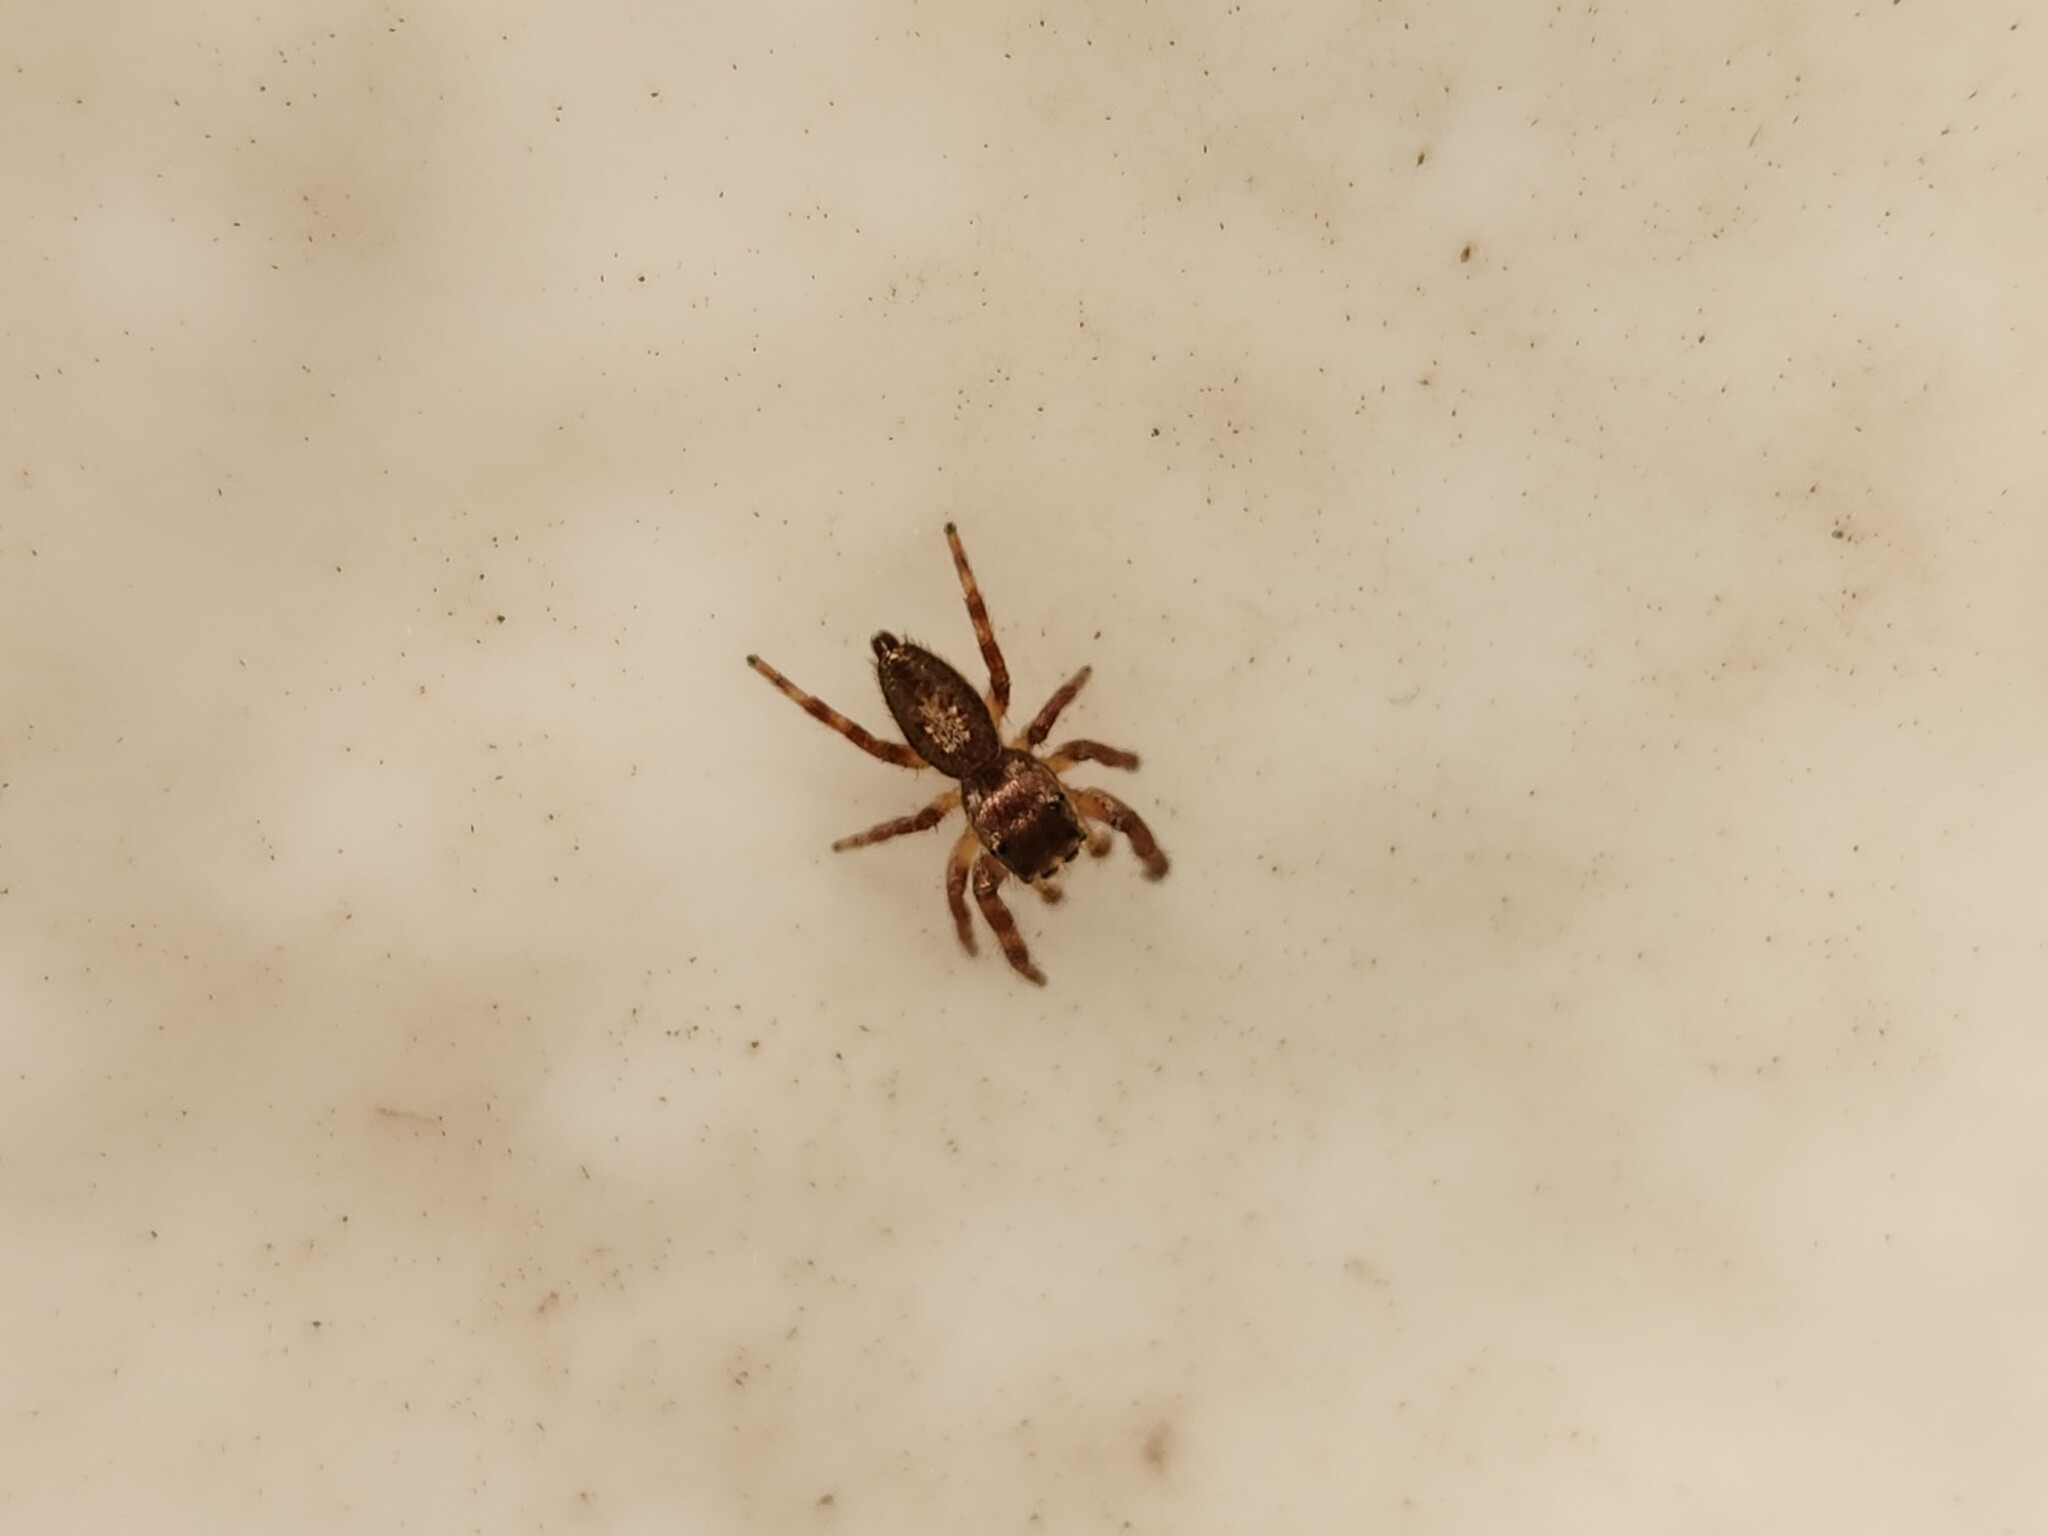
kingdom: Animalia
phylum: Arthropoda
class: Arachnida
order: Araneae
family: Salticidae
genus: Eris
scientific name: Eris floridana
